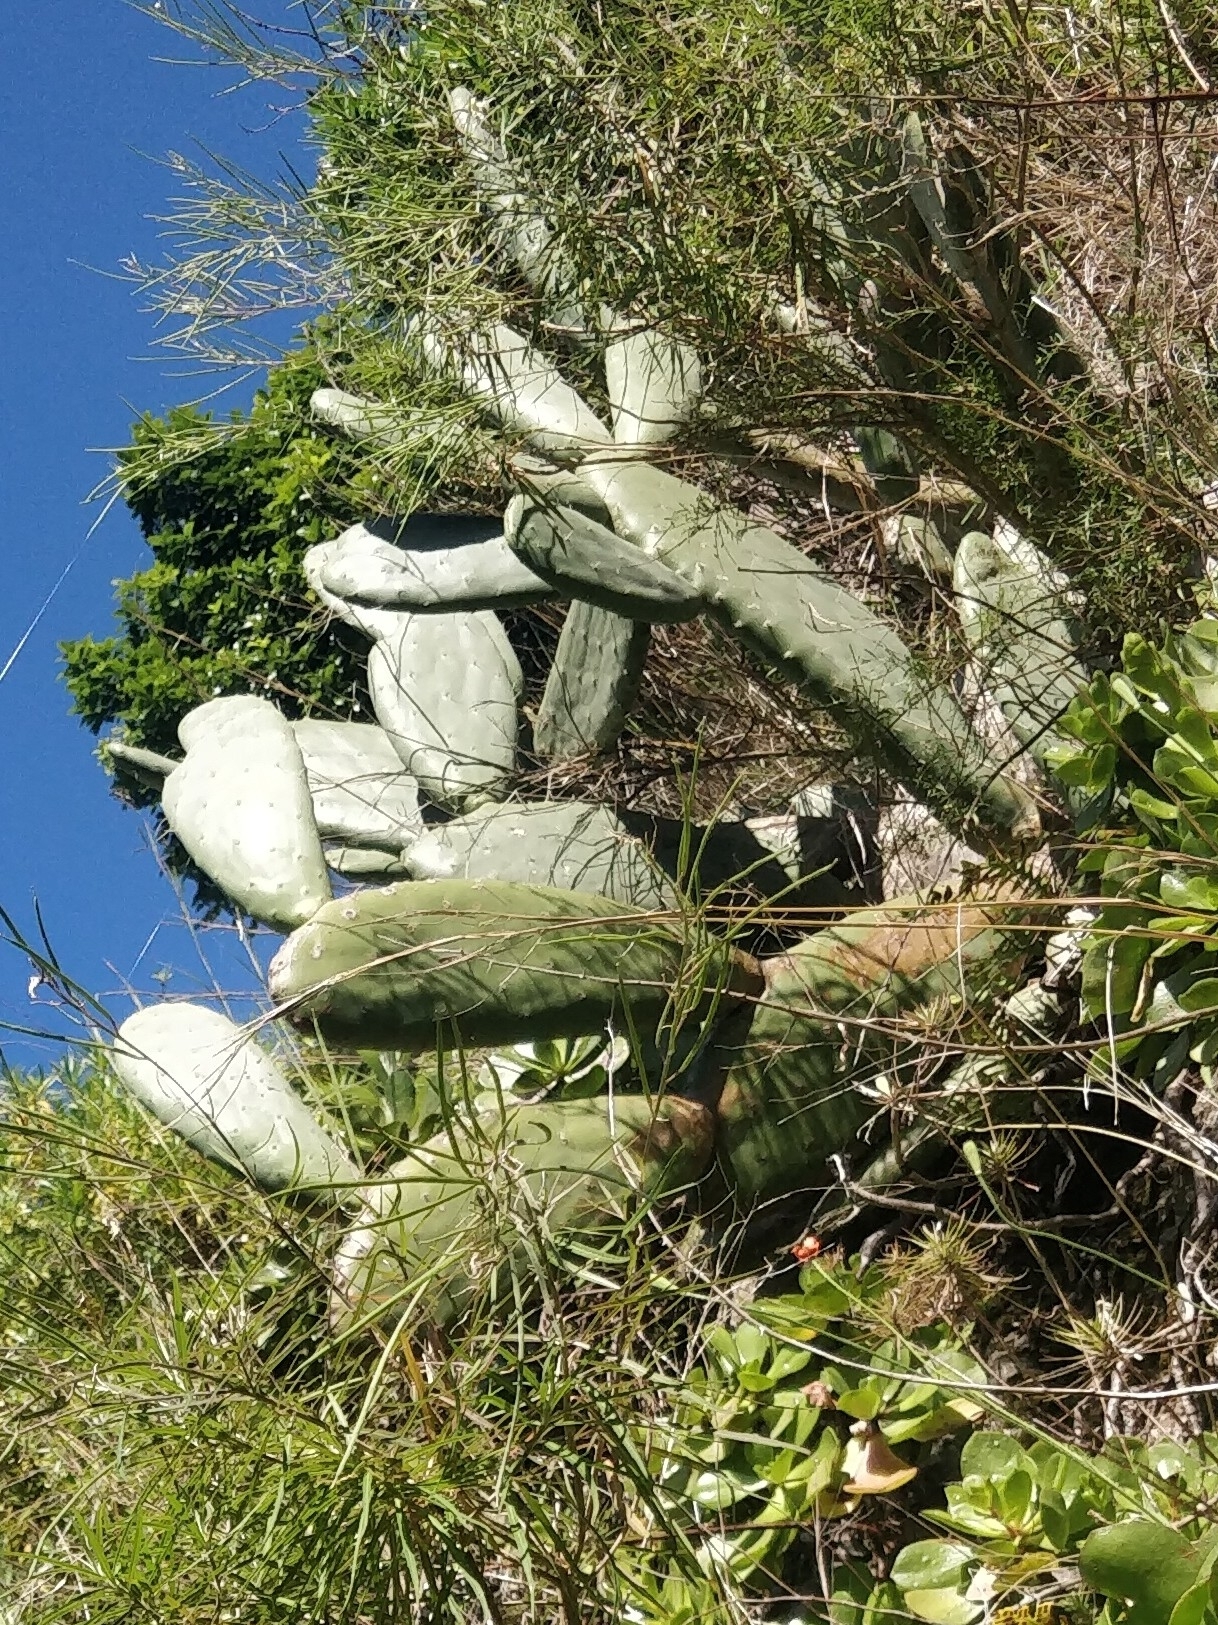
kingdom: Plantae
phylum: Tracheophyta
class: Magnoliopsida
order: Caryophyllales
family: Cactaceae
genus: Opuntia
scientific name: Opuntia ficus-indica
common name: Barbary fig
